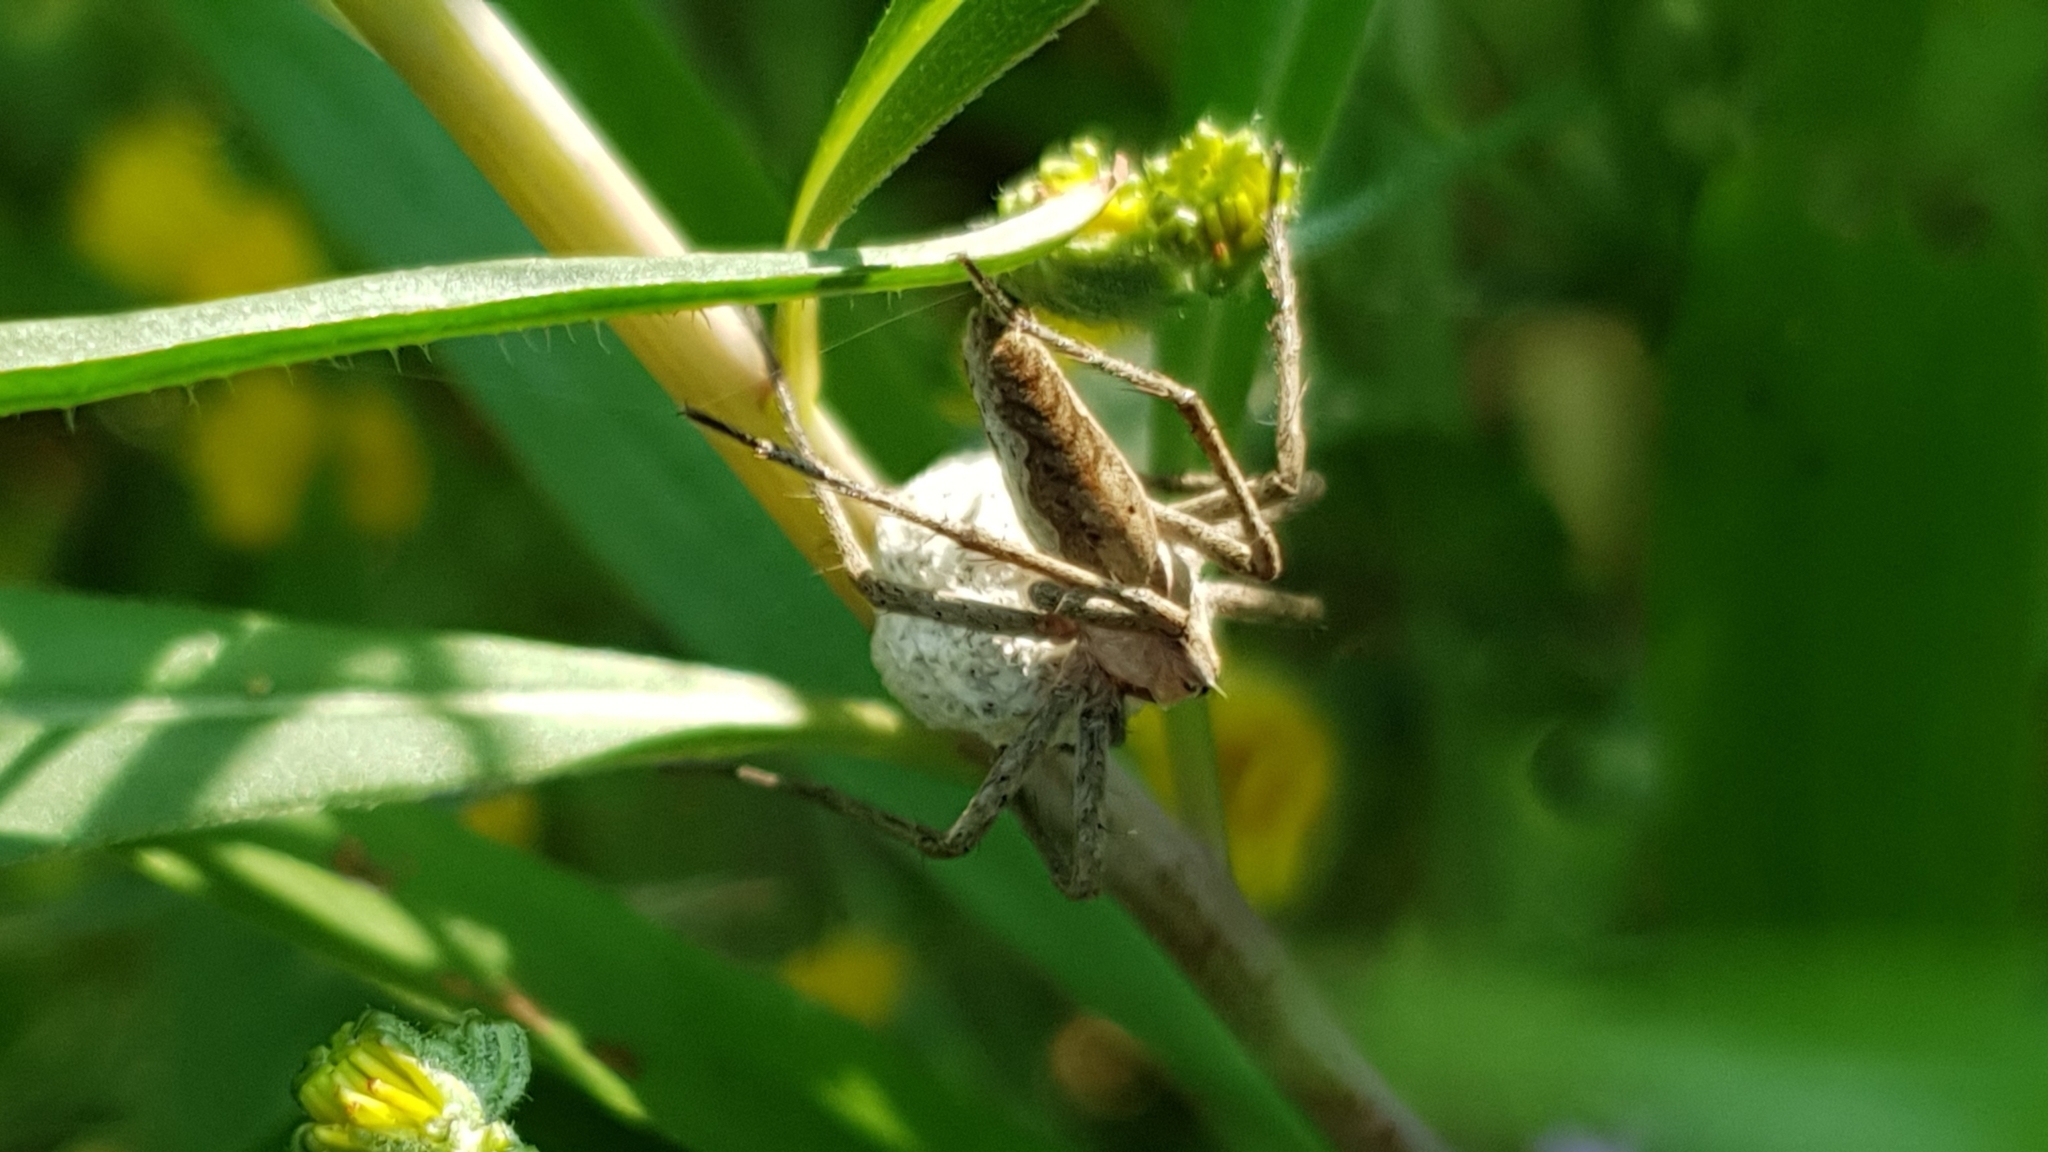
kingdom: Animalia
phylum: Arthropoda
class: Arachnida
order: Araneae
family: Pisauridae
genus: Pisaura
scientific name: Pisaura mirabilis
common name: Tent spider
